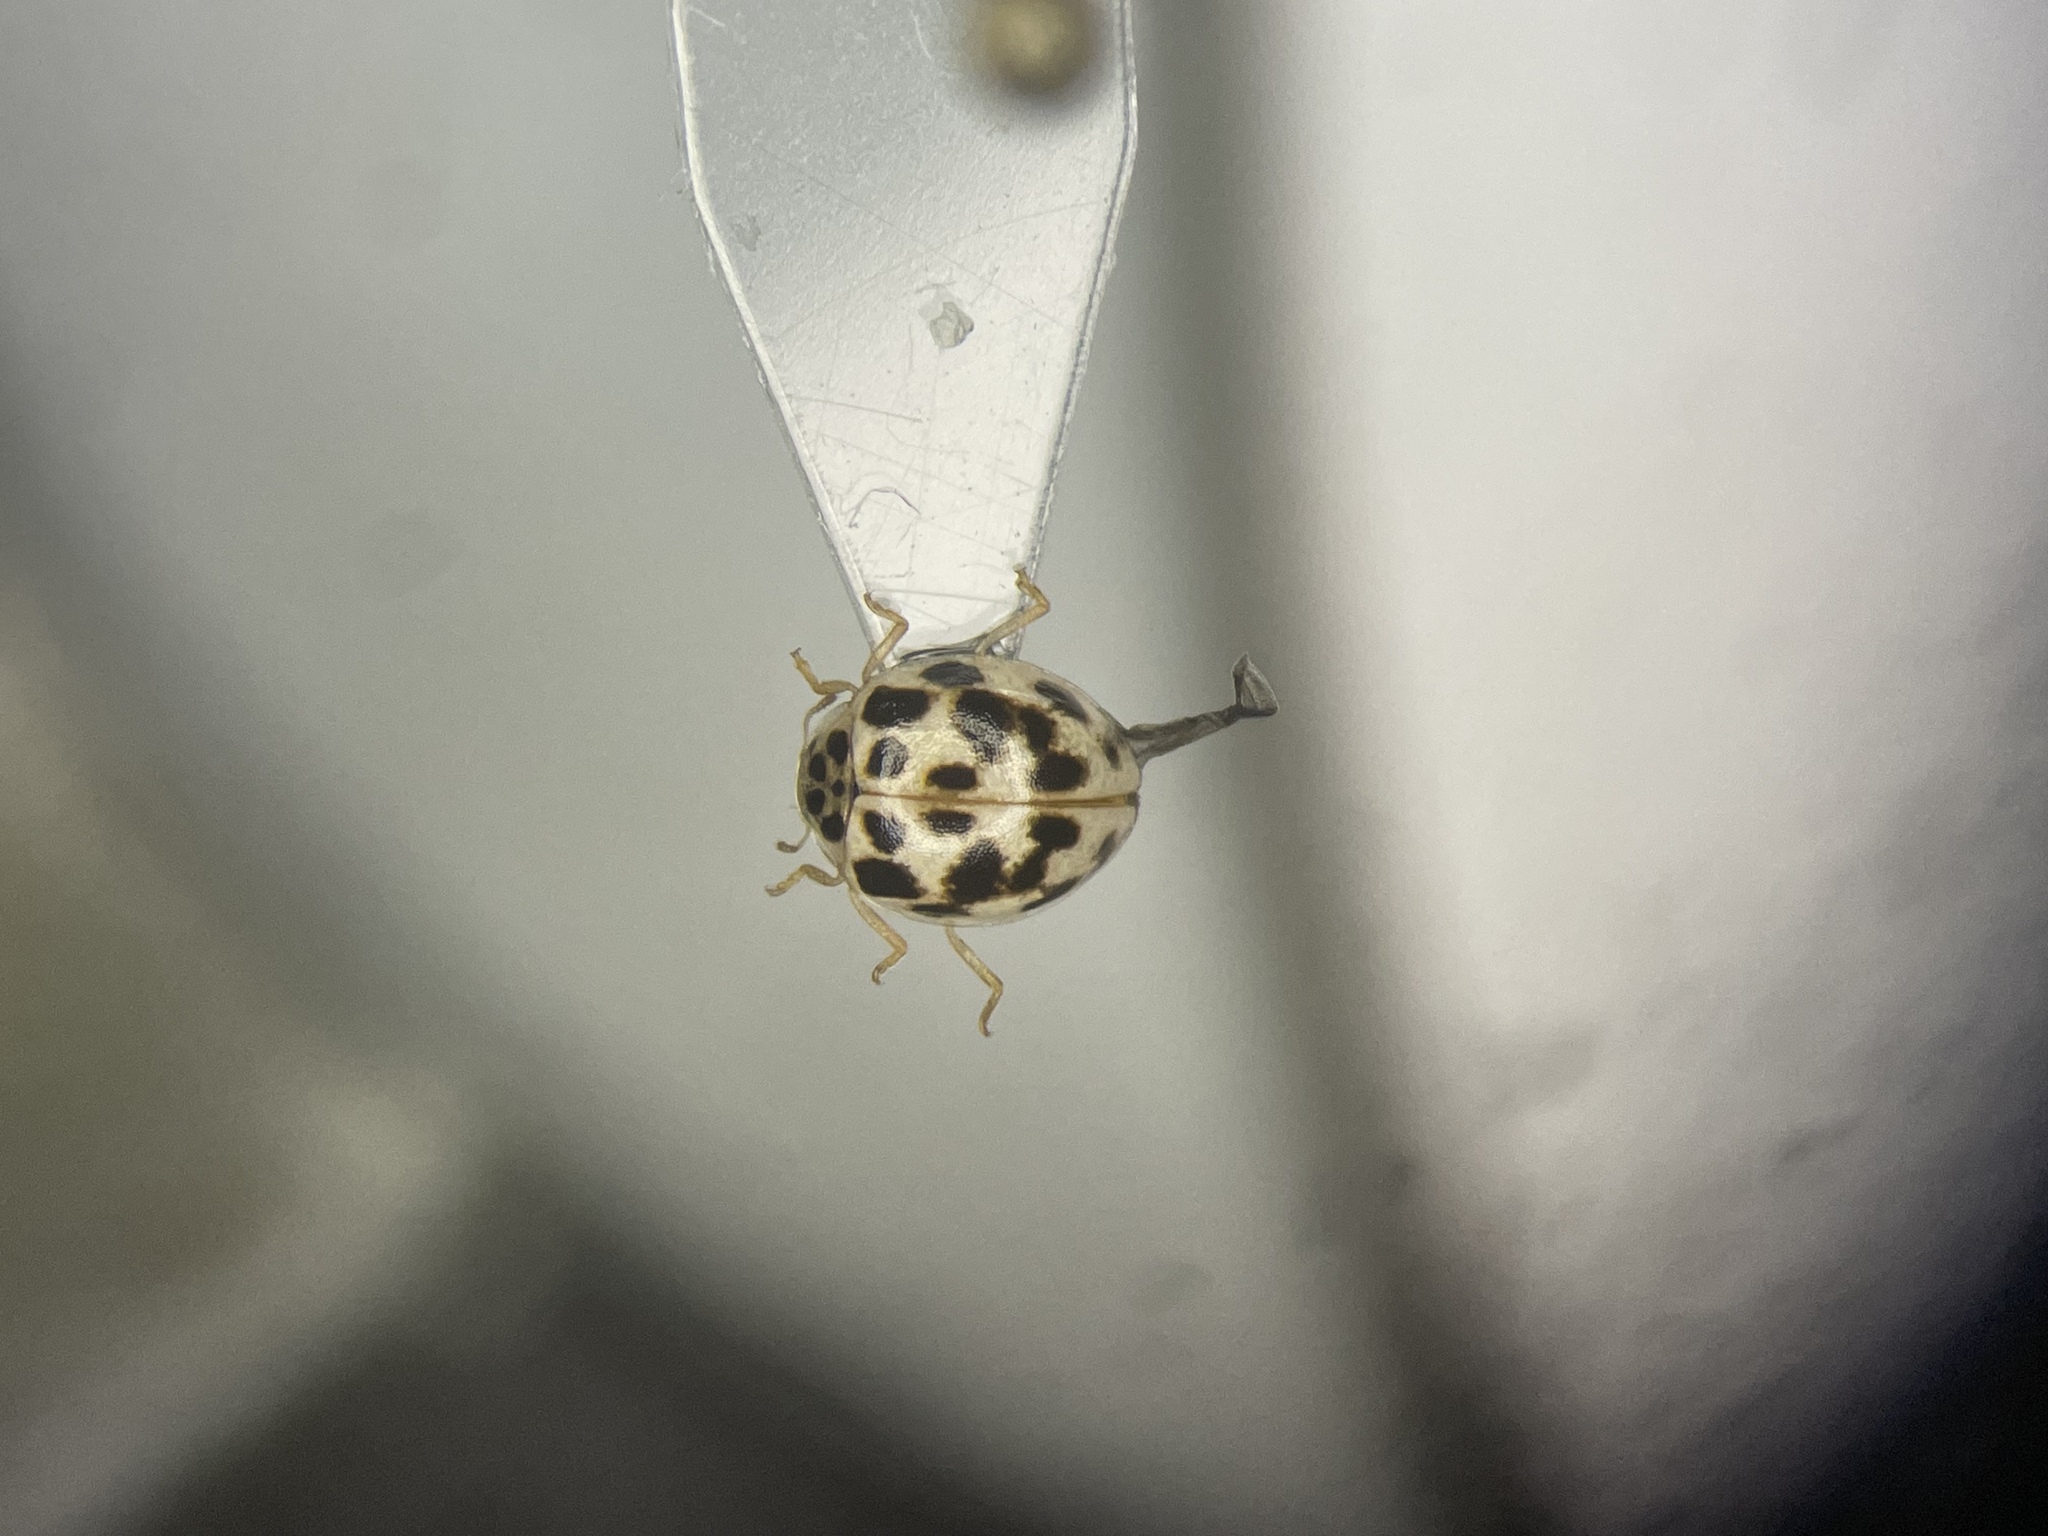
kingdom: Animalia
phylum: Arthropoda
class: Insecta
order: Coleoptera
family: Coccinellidae
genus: Psyllobora
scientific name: Psyllobora vigintimaculata
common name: Ladybird beetle
